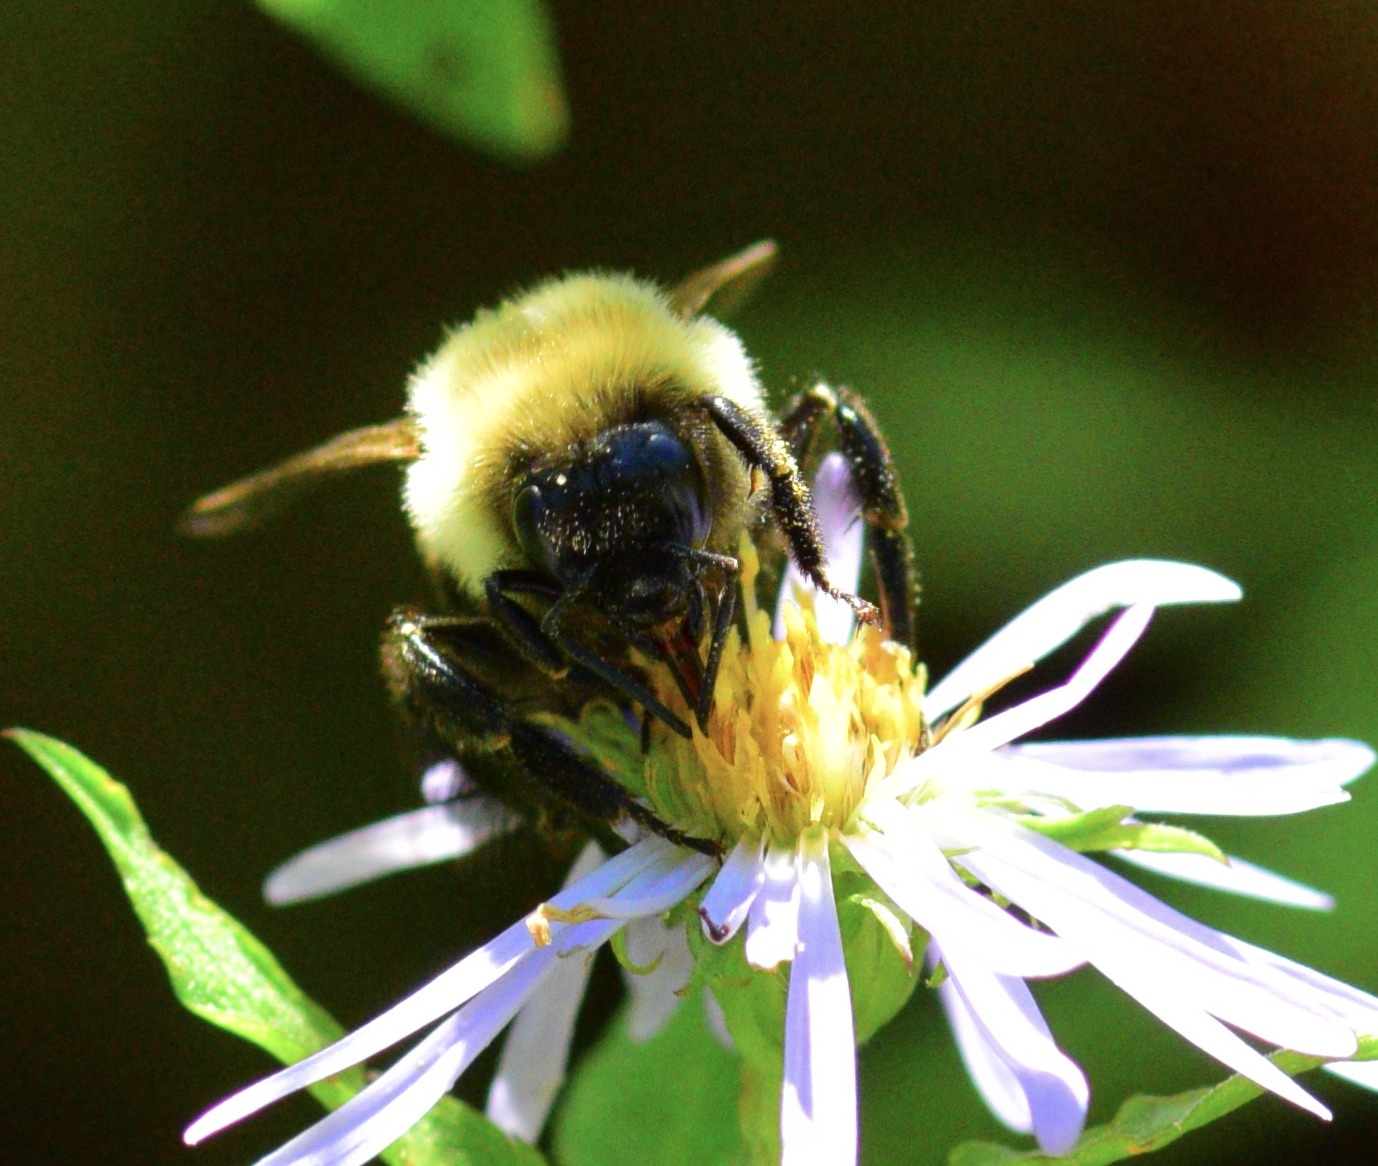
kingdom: Animalia
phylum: Arthropoda
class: Insecta
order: Hymenoptera
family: Apidae
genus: Bombus
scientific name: Bombus impatiens
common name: Common eastern bumble bee
